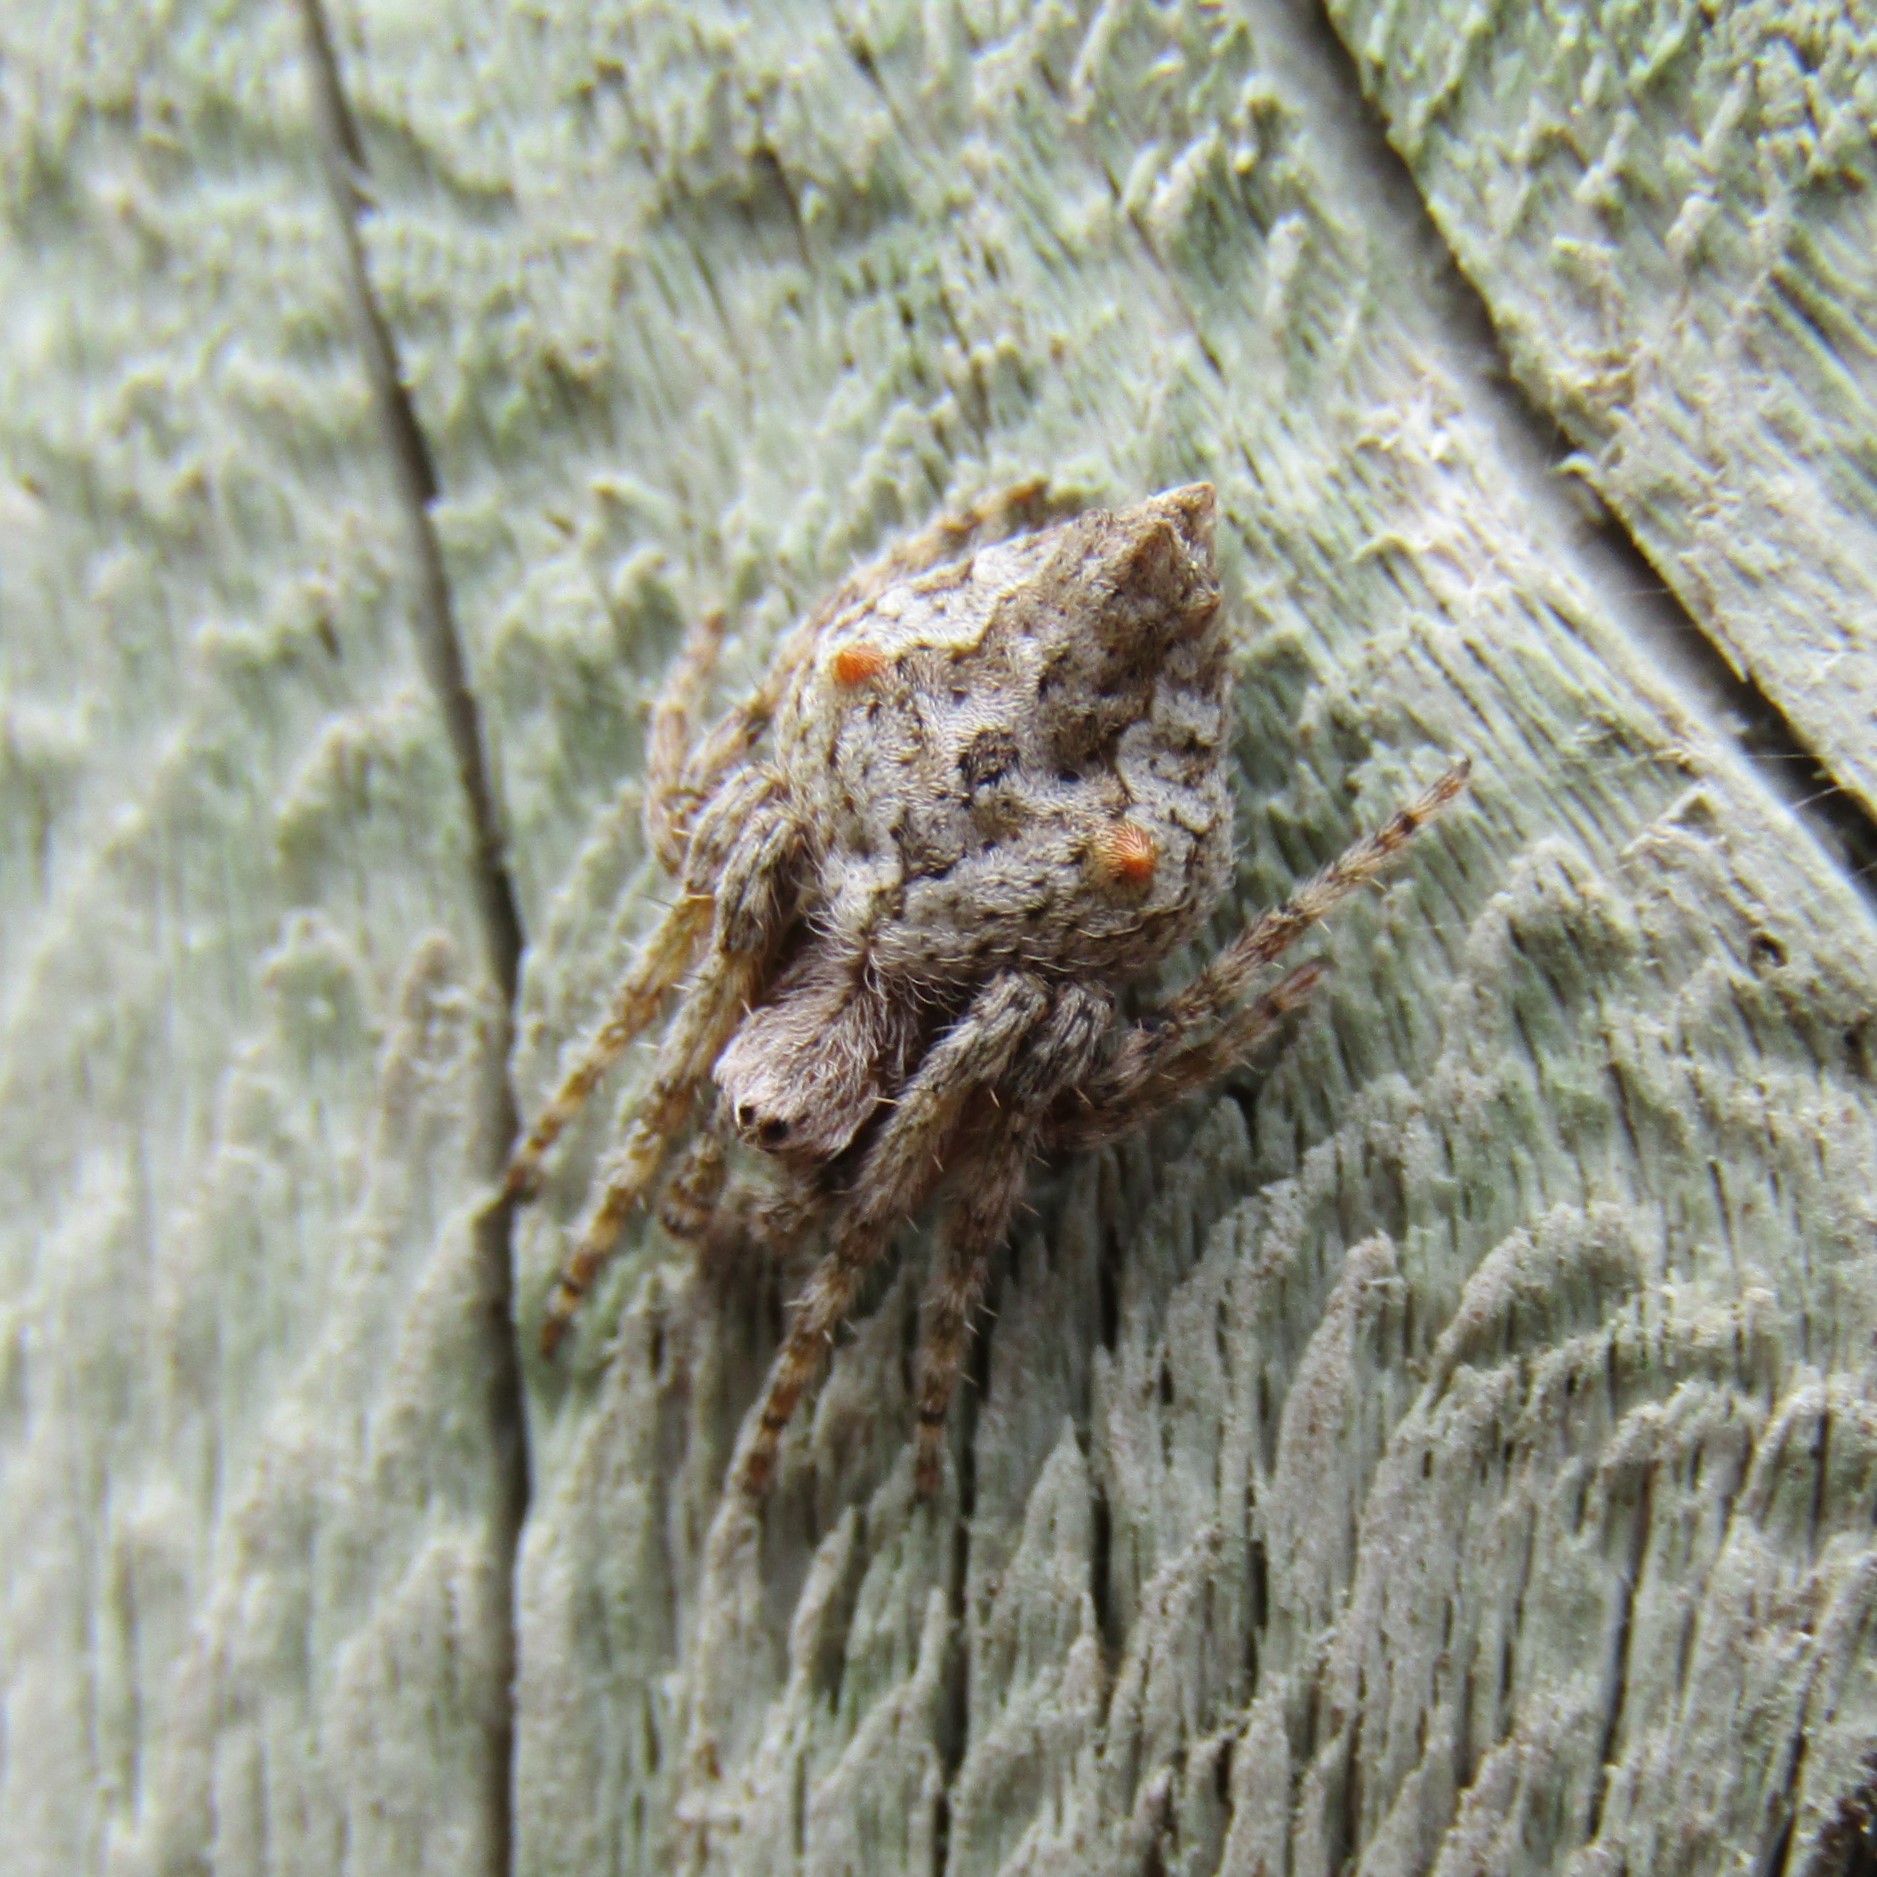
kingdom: Animalia
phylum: Arthropoda
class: Arachnida
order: Araneae
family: Araneidae
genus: Eriophora
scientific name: Eriophora pustulosa
